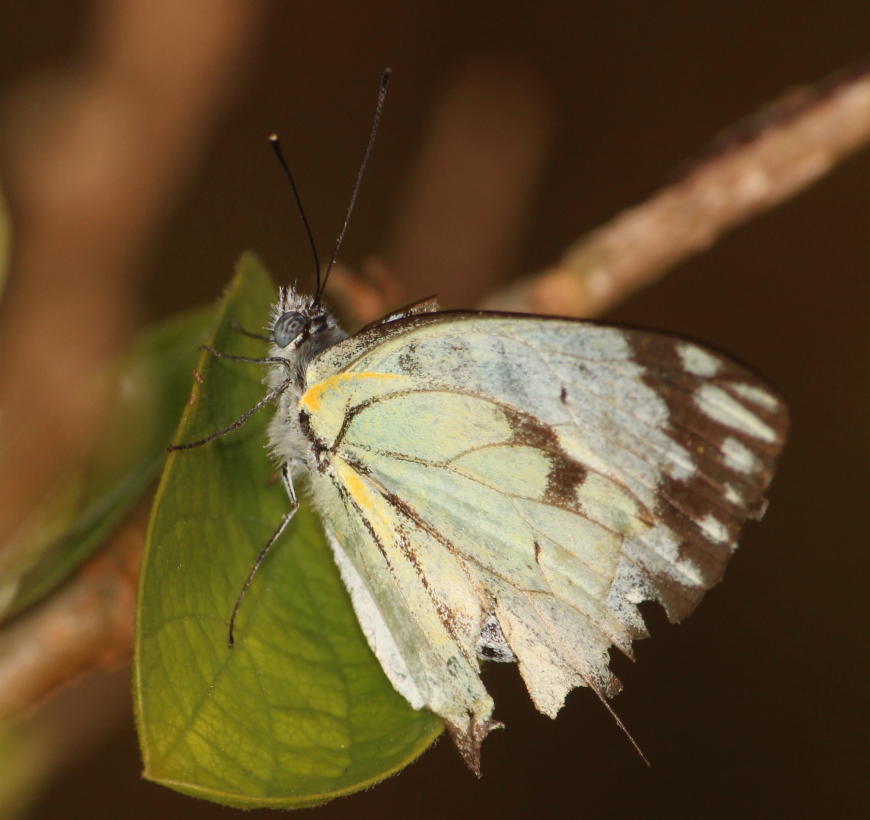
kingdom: Animalia
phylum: Arthropoda
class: Insecta
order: Lepidoptera
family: Pieridae
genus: Belenois
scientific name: Belenois creona
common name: African caper white
